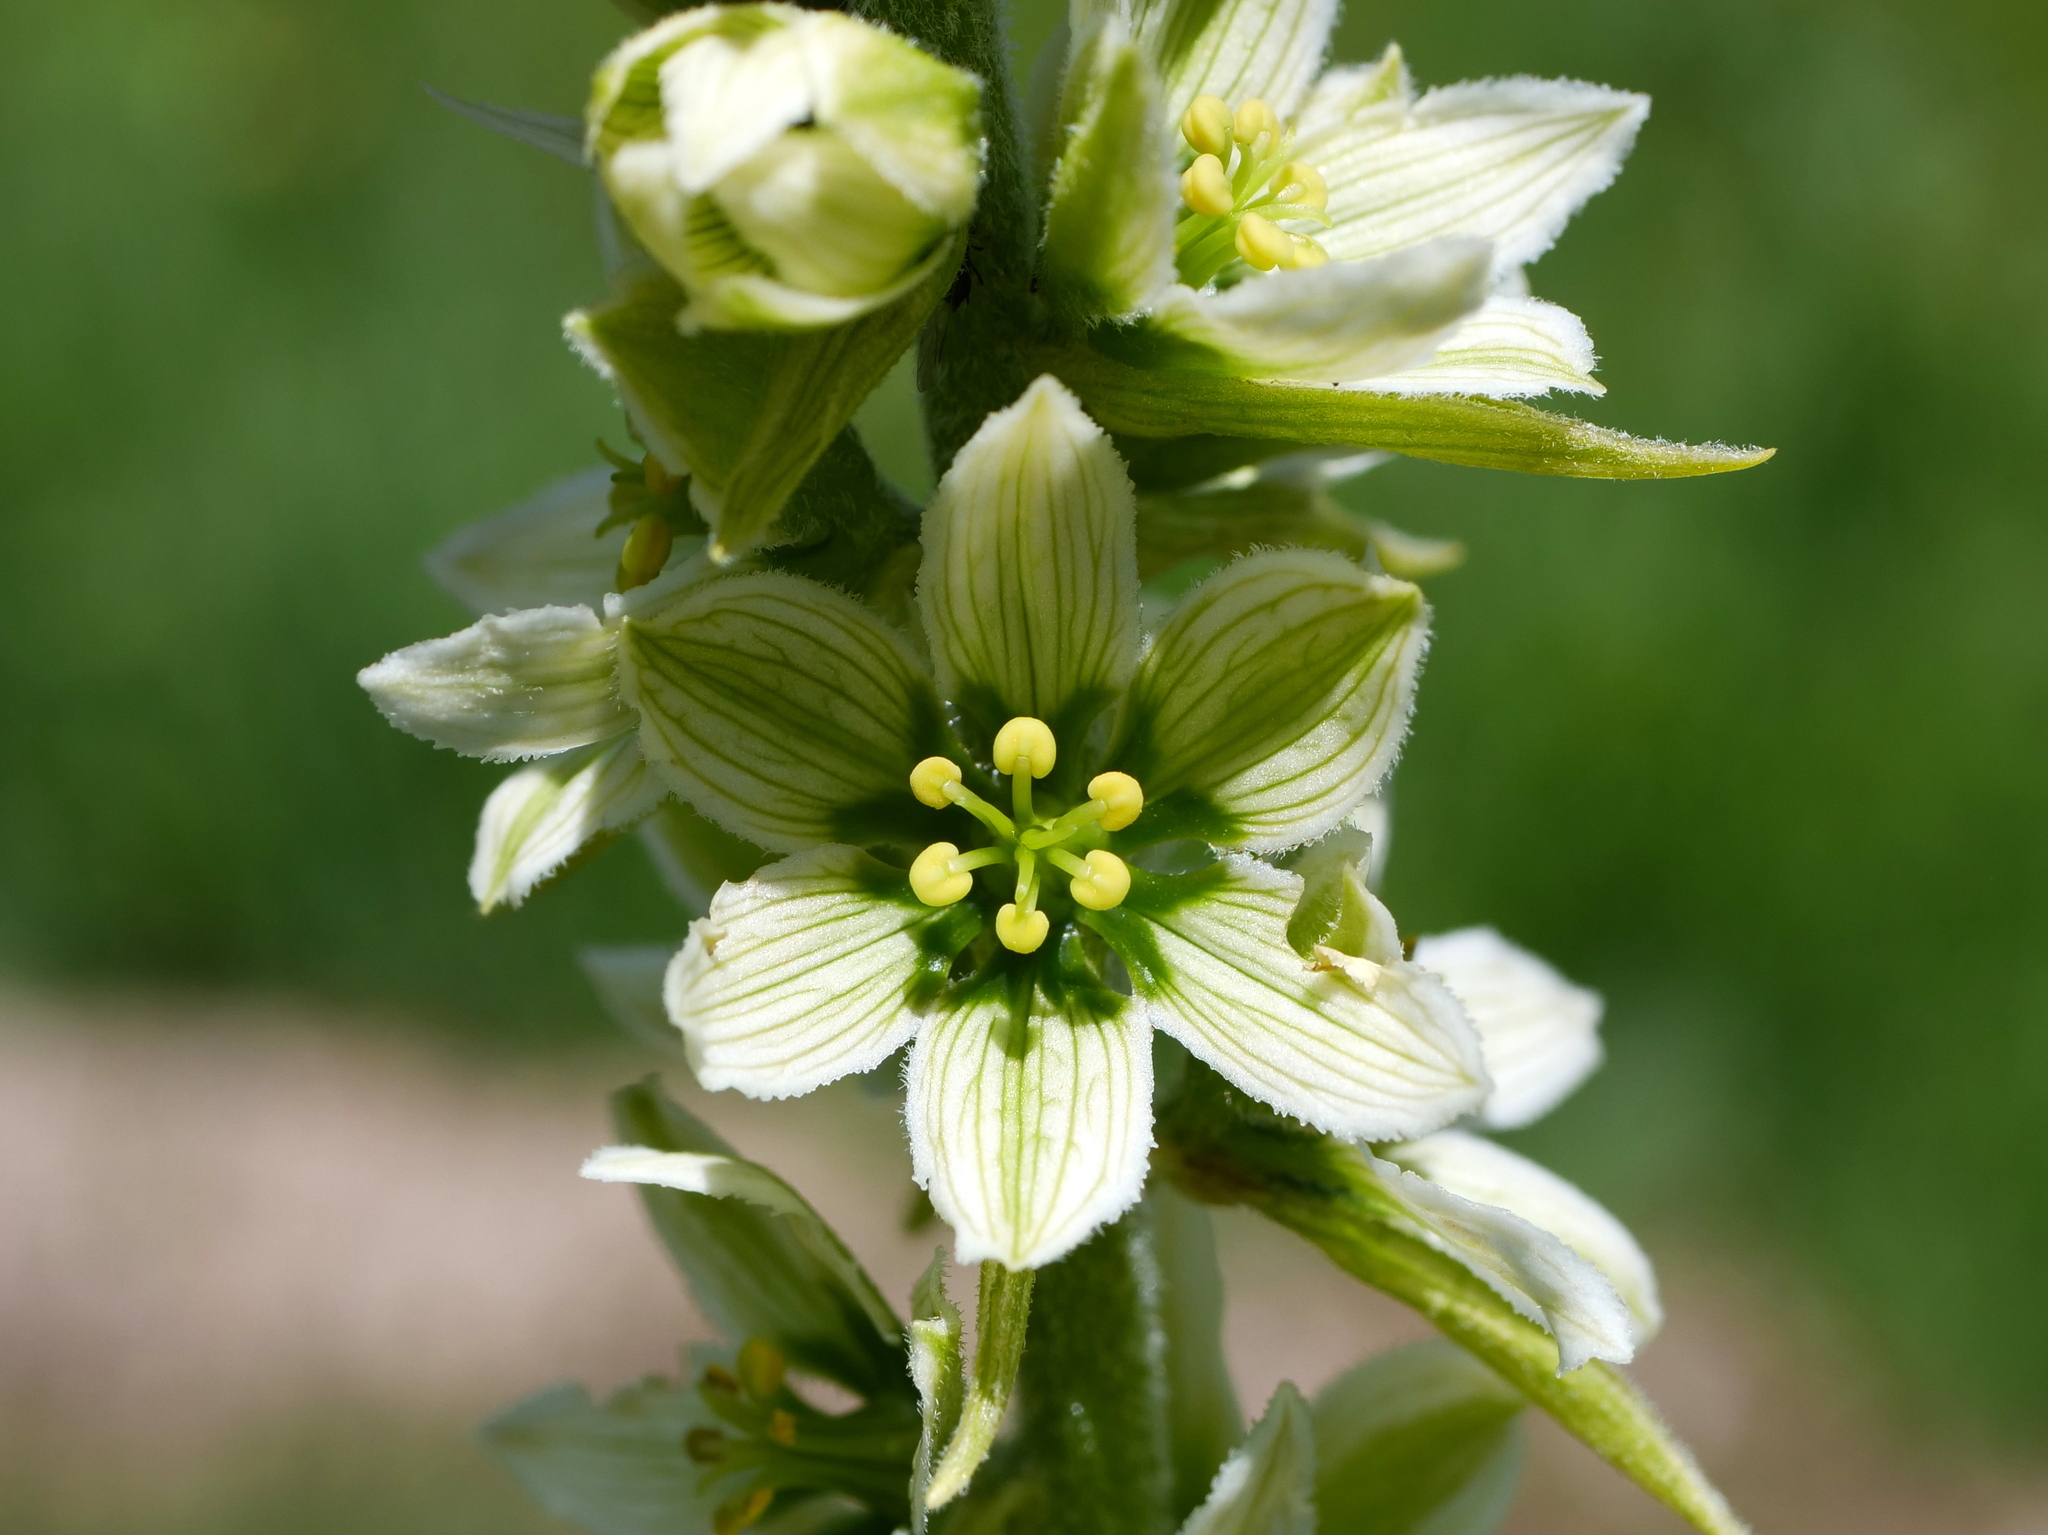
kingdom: Plantae
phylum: Tracheophyta
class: Liliopsida
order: Liliales
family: Melanthiaceae
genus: Veratrum
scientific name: Veratrum album
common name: White veratrum
